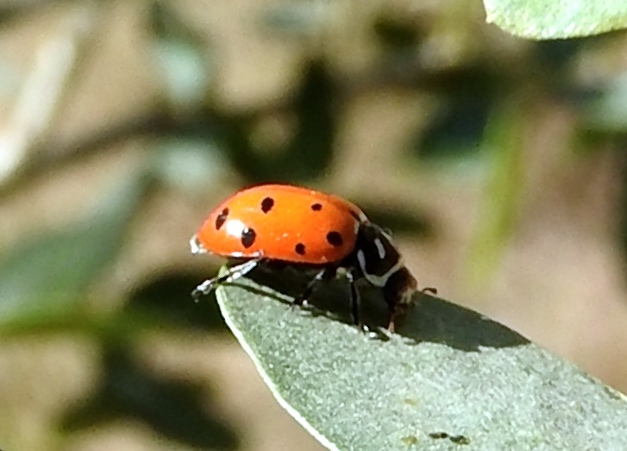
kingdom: Animalia
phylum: Arthropoda
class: Insecta
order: Coleoptera
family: Coccinellidae
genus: Hippodamia
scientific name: Hippodamia convergens
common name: Convergent lady beetle
